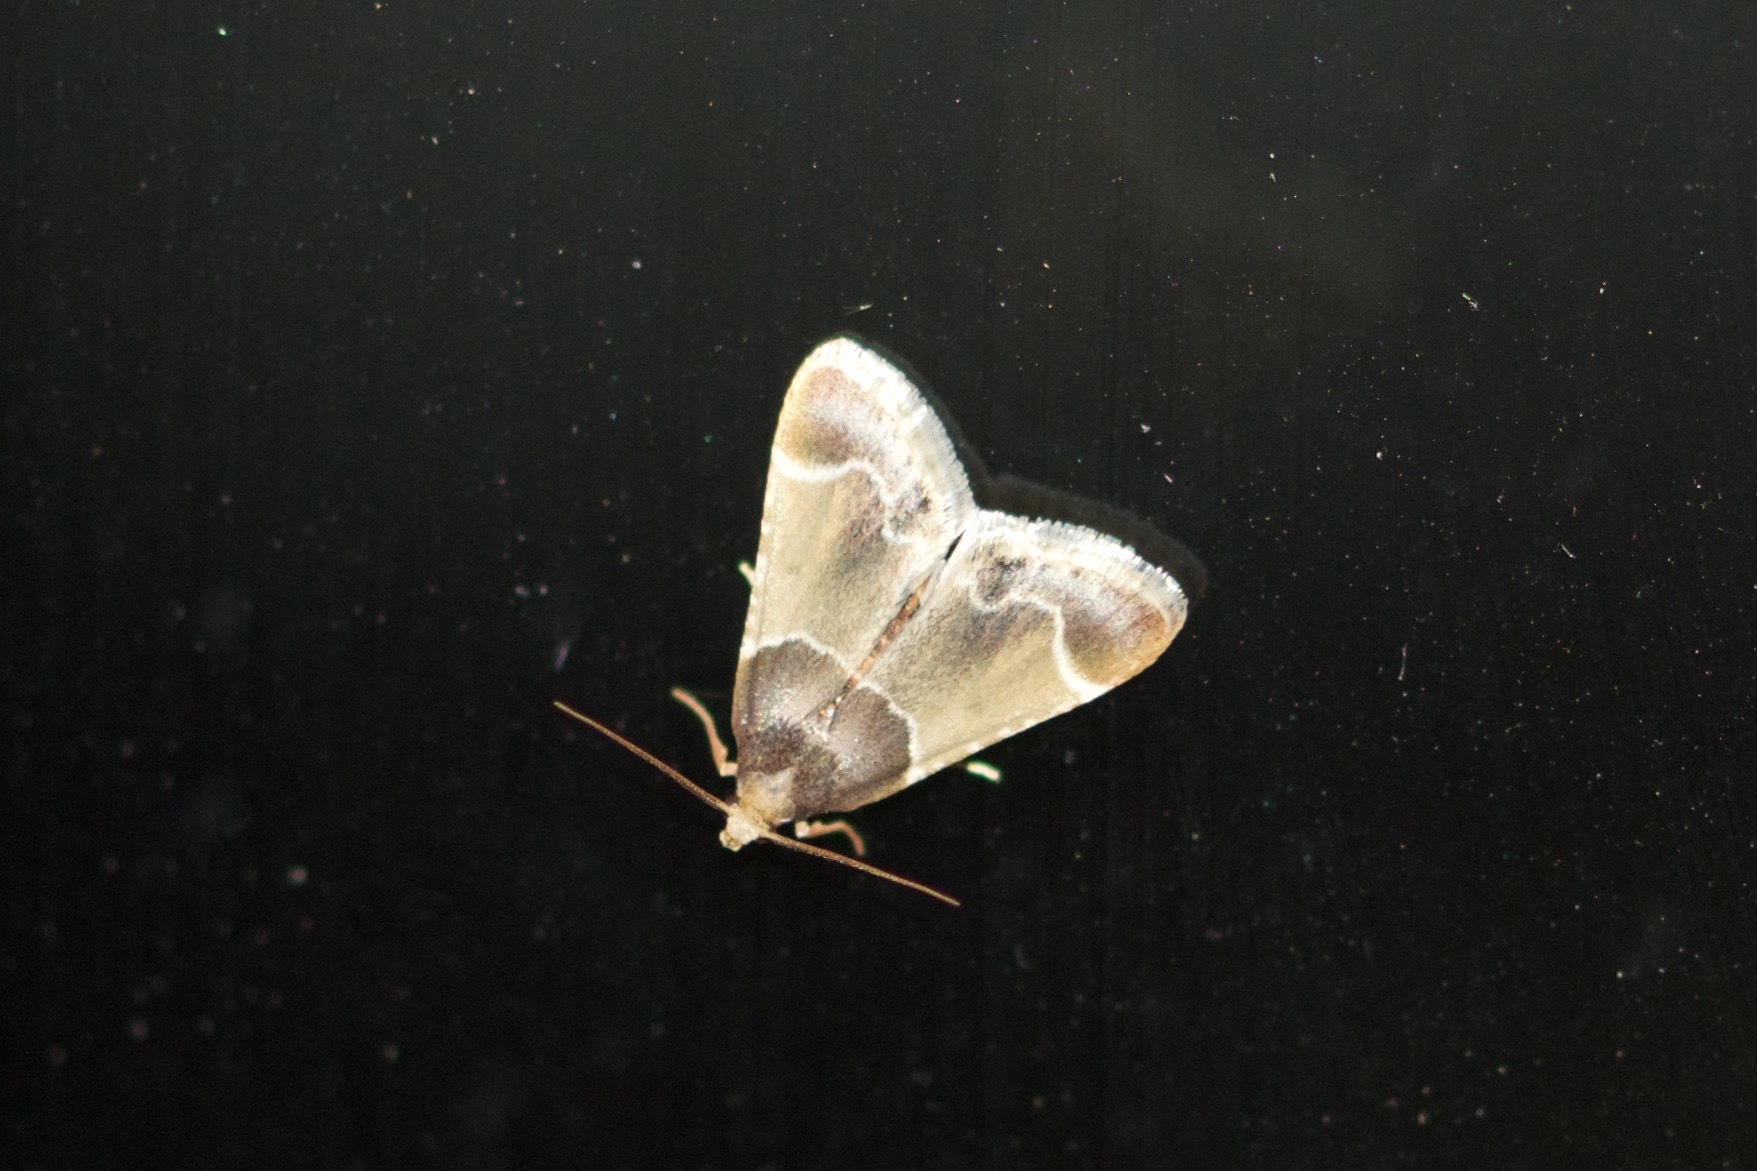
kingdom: Animalia
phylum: Arthropoda
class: Insecta
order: Lepidoptera
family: Pyralidae
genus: Pyralis
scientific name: Pyralis farinalis
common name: Meal moth
